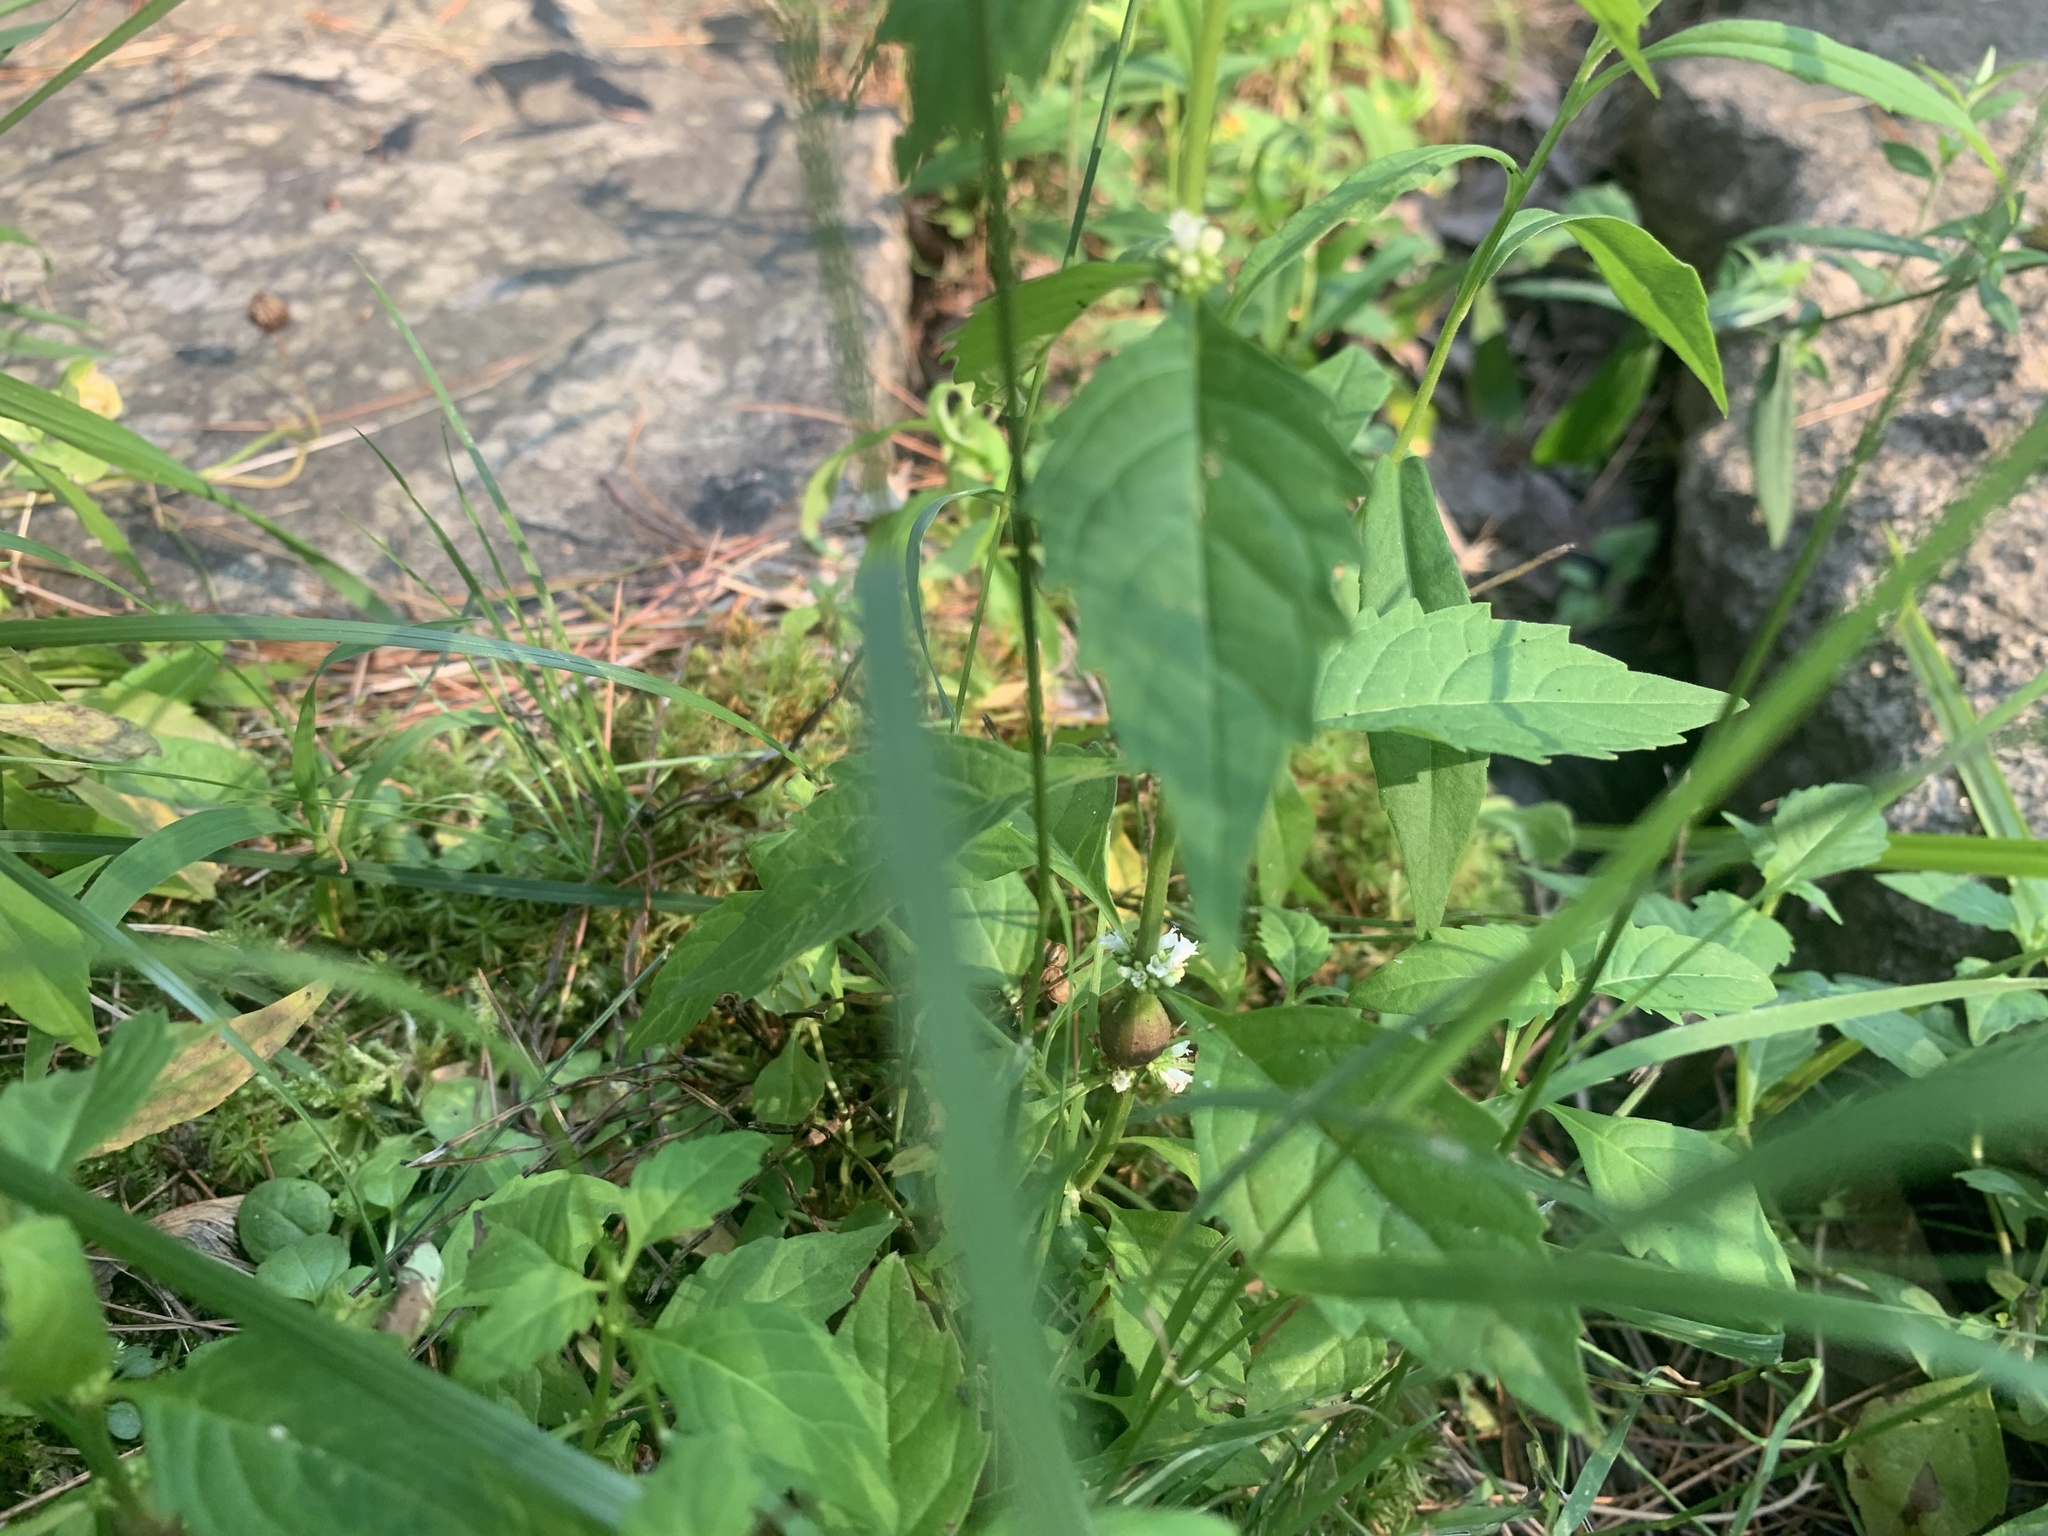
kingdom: Animalia
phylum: Arthropoda
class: Insecta
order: Diptera
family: Cecidomyiidae
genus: Neolasioptera
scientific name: Neolasioptera lycopi
